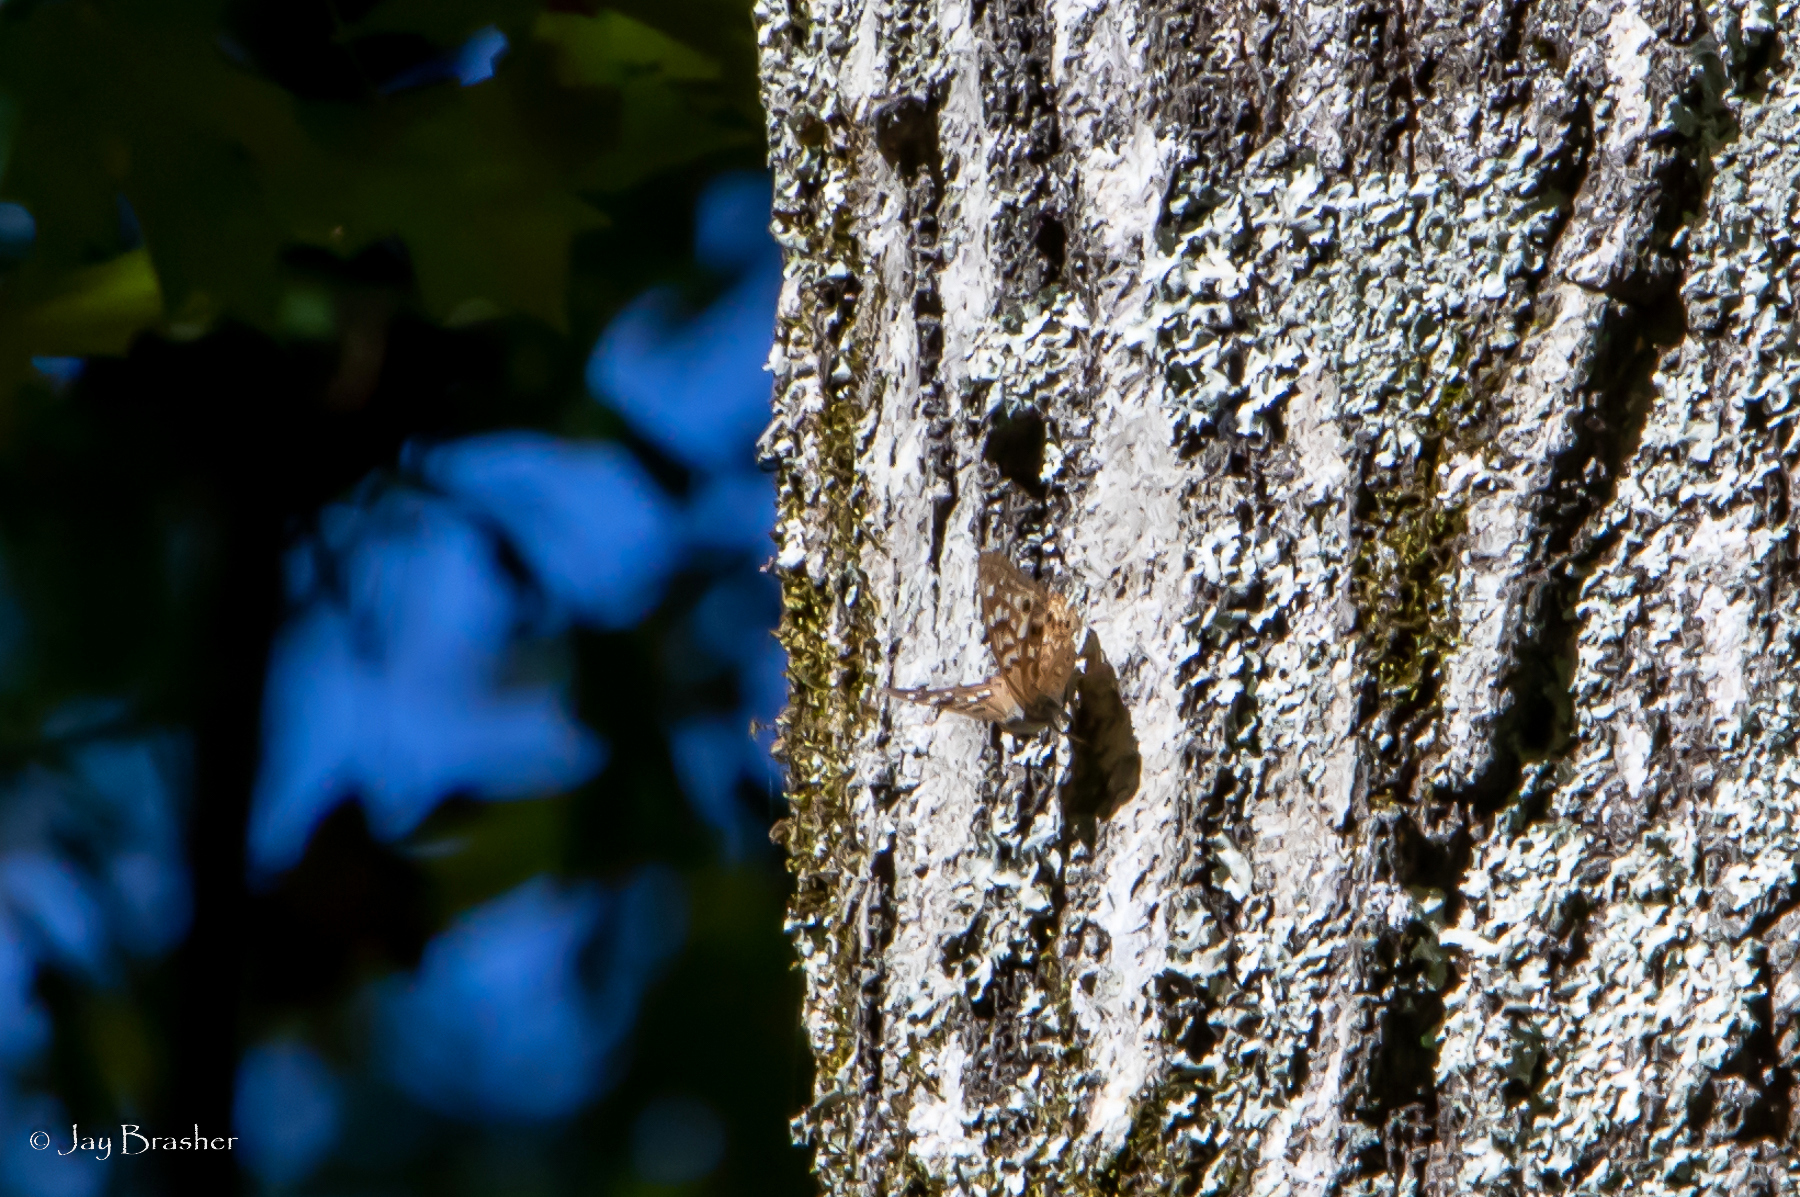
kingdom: Animalia
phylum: Arthropoda
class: Insecta
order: Lepidoptera
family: Nymphalidae
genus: Asterocampa
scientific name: Asterocampa celtis
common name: Hackberry emperor
